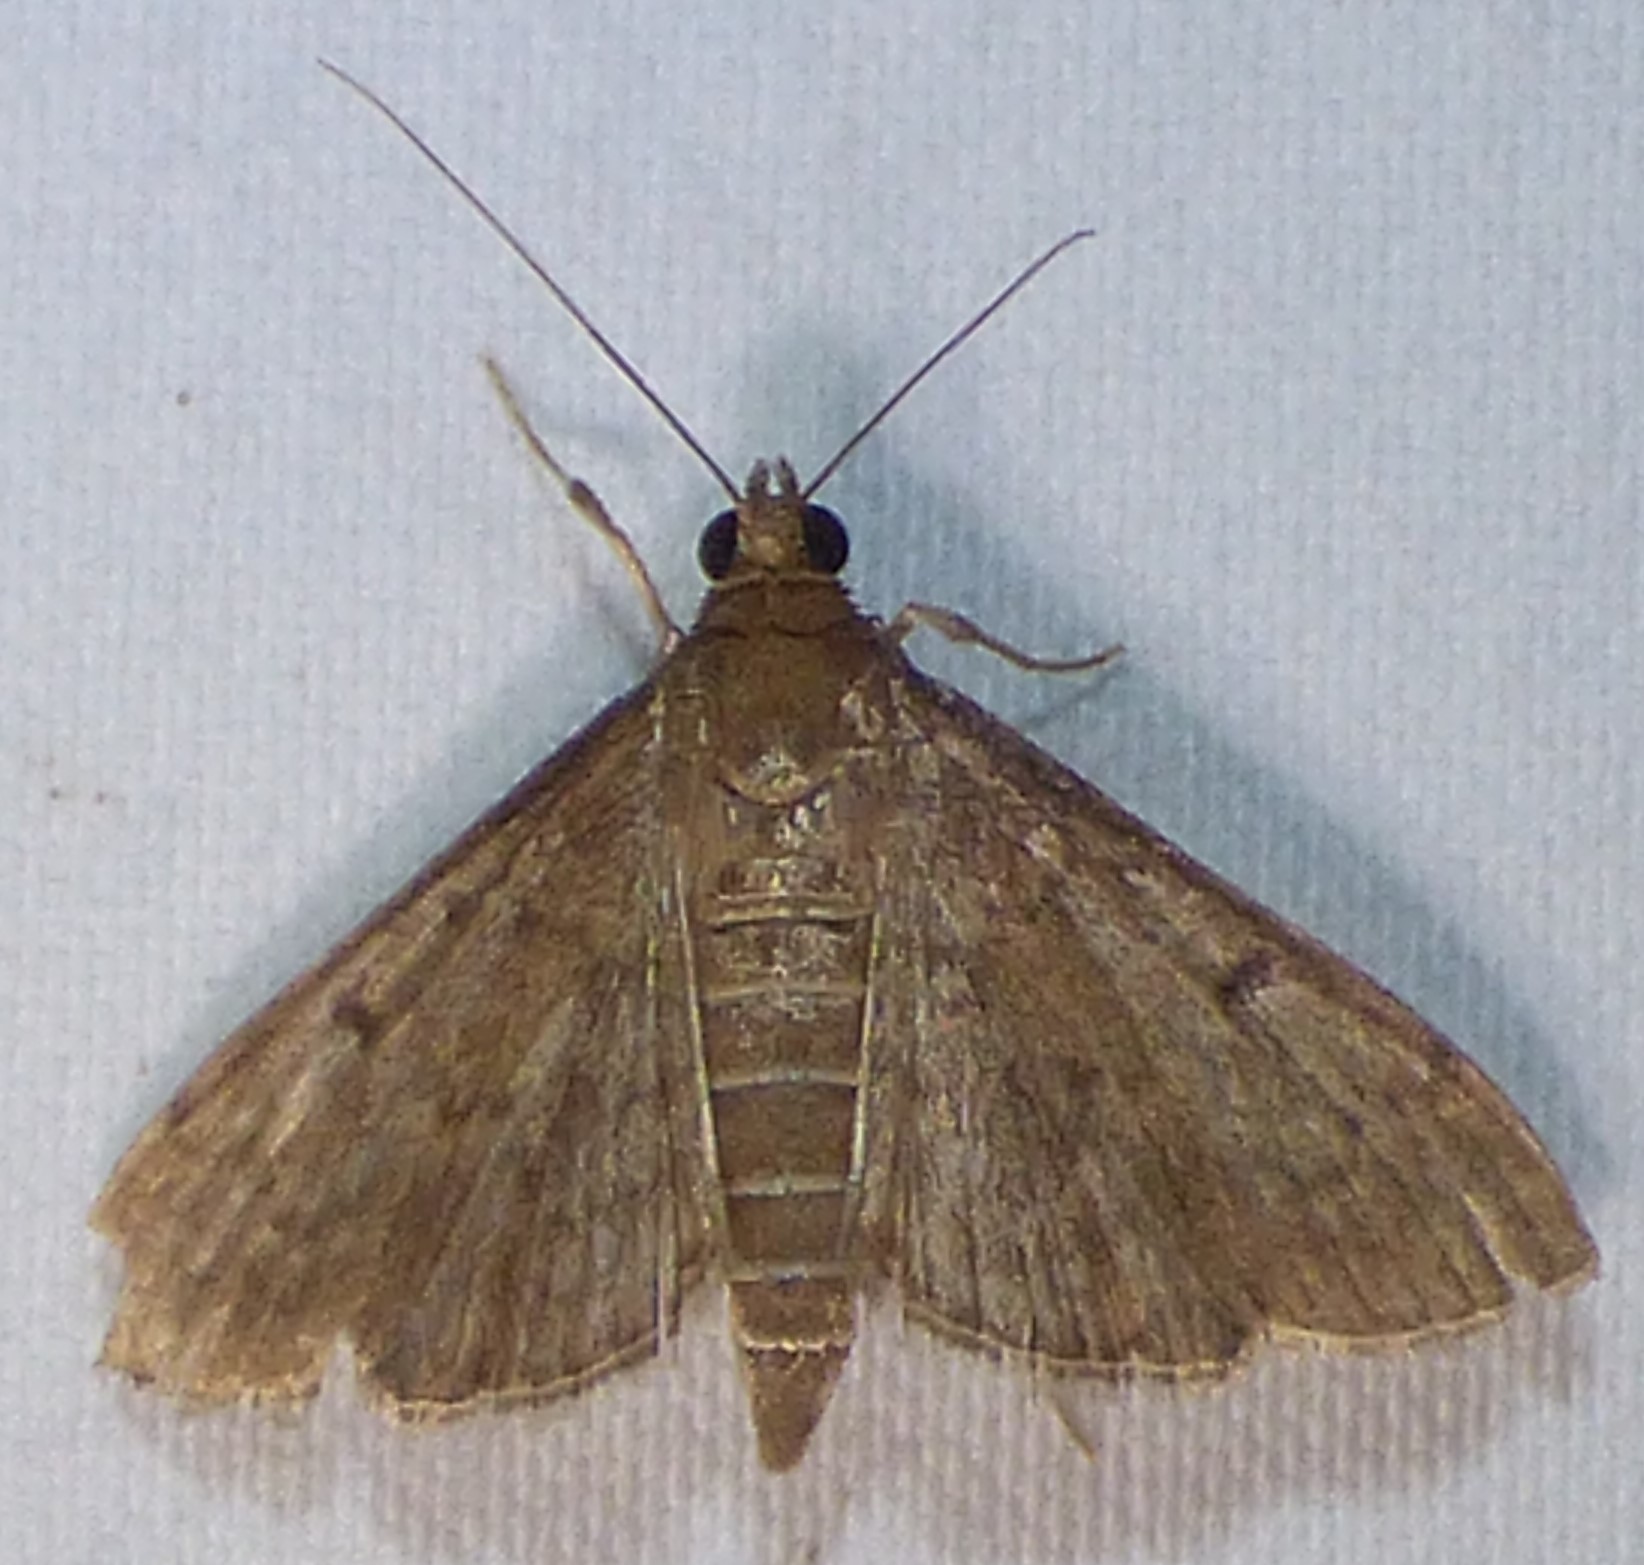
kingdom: Animalia
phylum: Arthropoda
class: Insecta
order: Lepidoptera
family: Crambidae
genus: Herpetogramma
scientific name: Herpetogramma phaeopteralis
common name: Dusky herpetogramma moth
